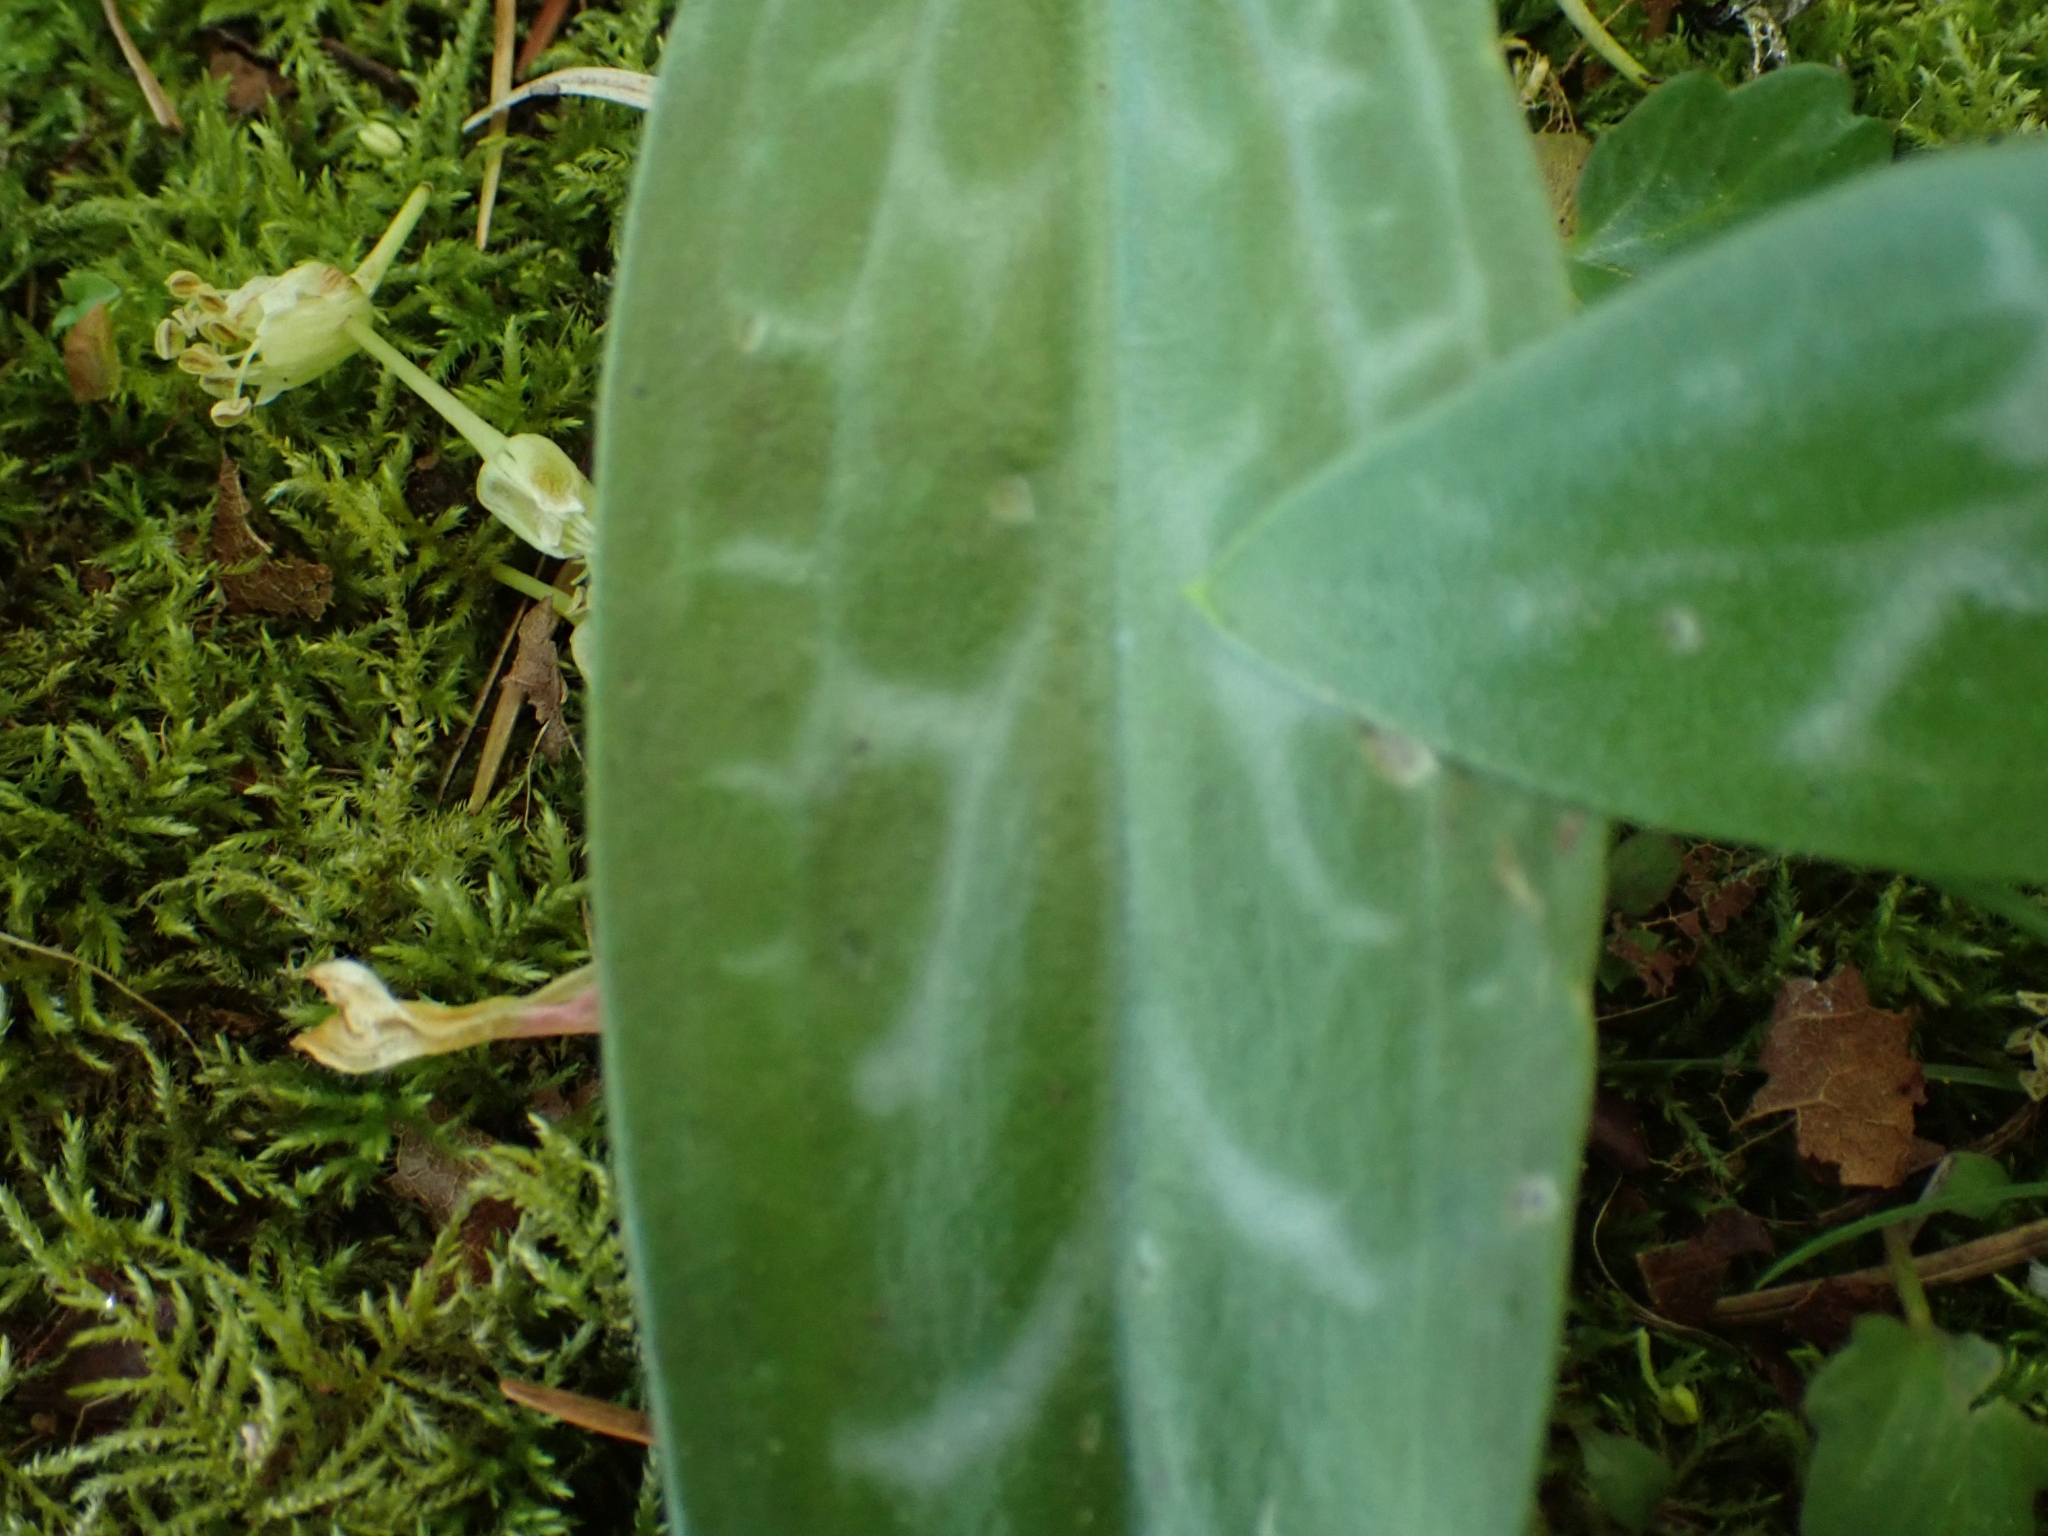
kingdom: Plantae
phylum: Tracheophyta
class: Liliopsida
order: Liliales
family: Liliaceae
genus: Erythronium
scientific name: Erythronium oregonum
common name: Giant adder's-tongue
